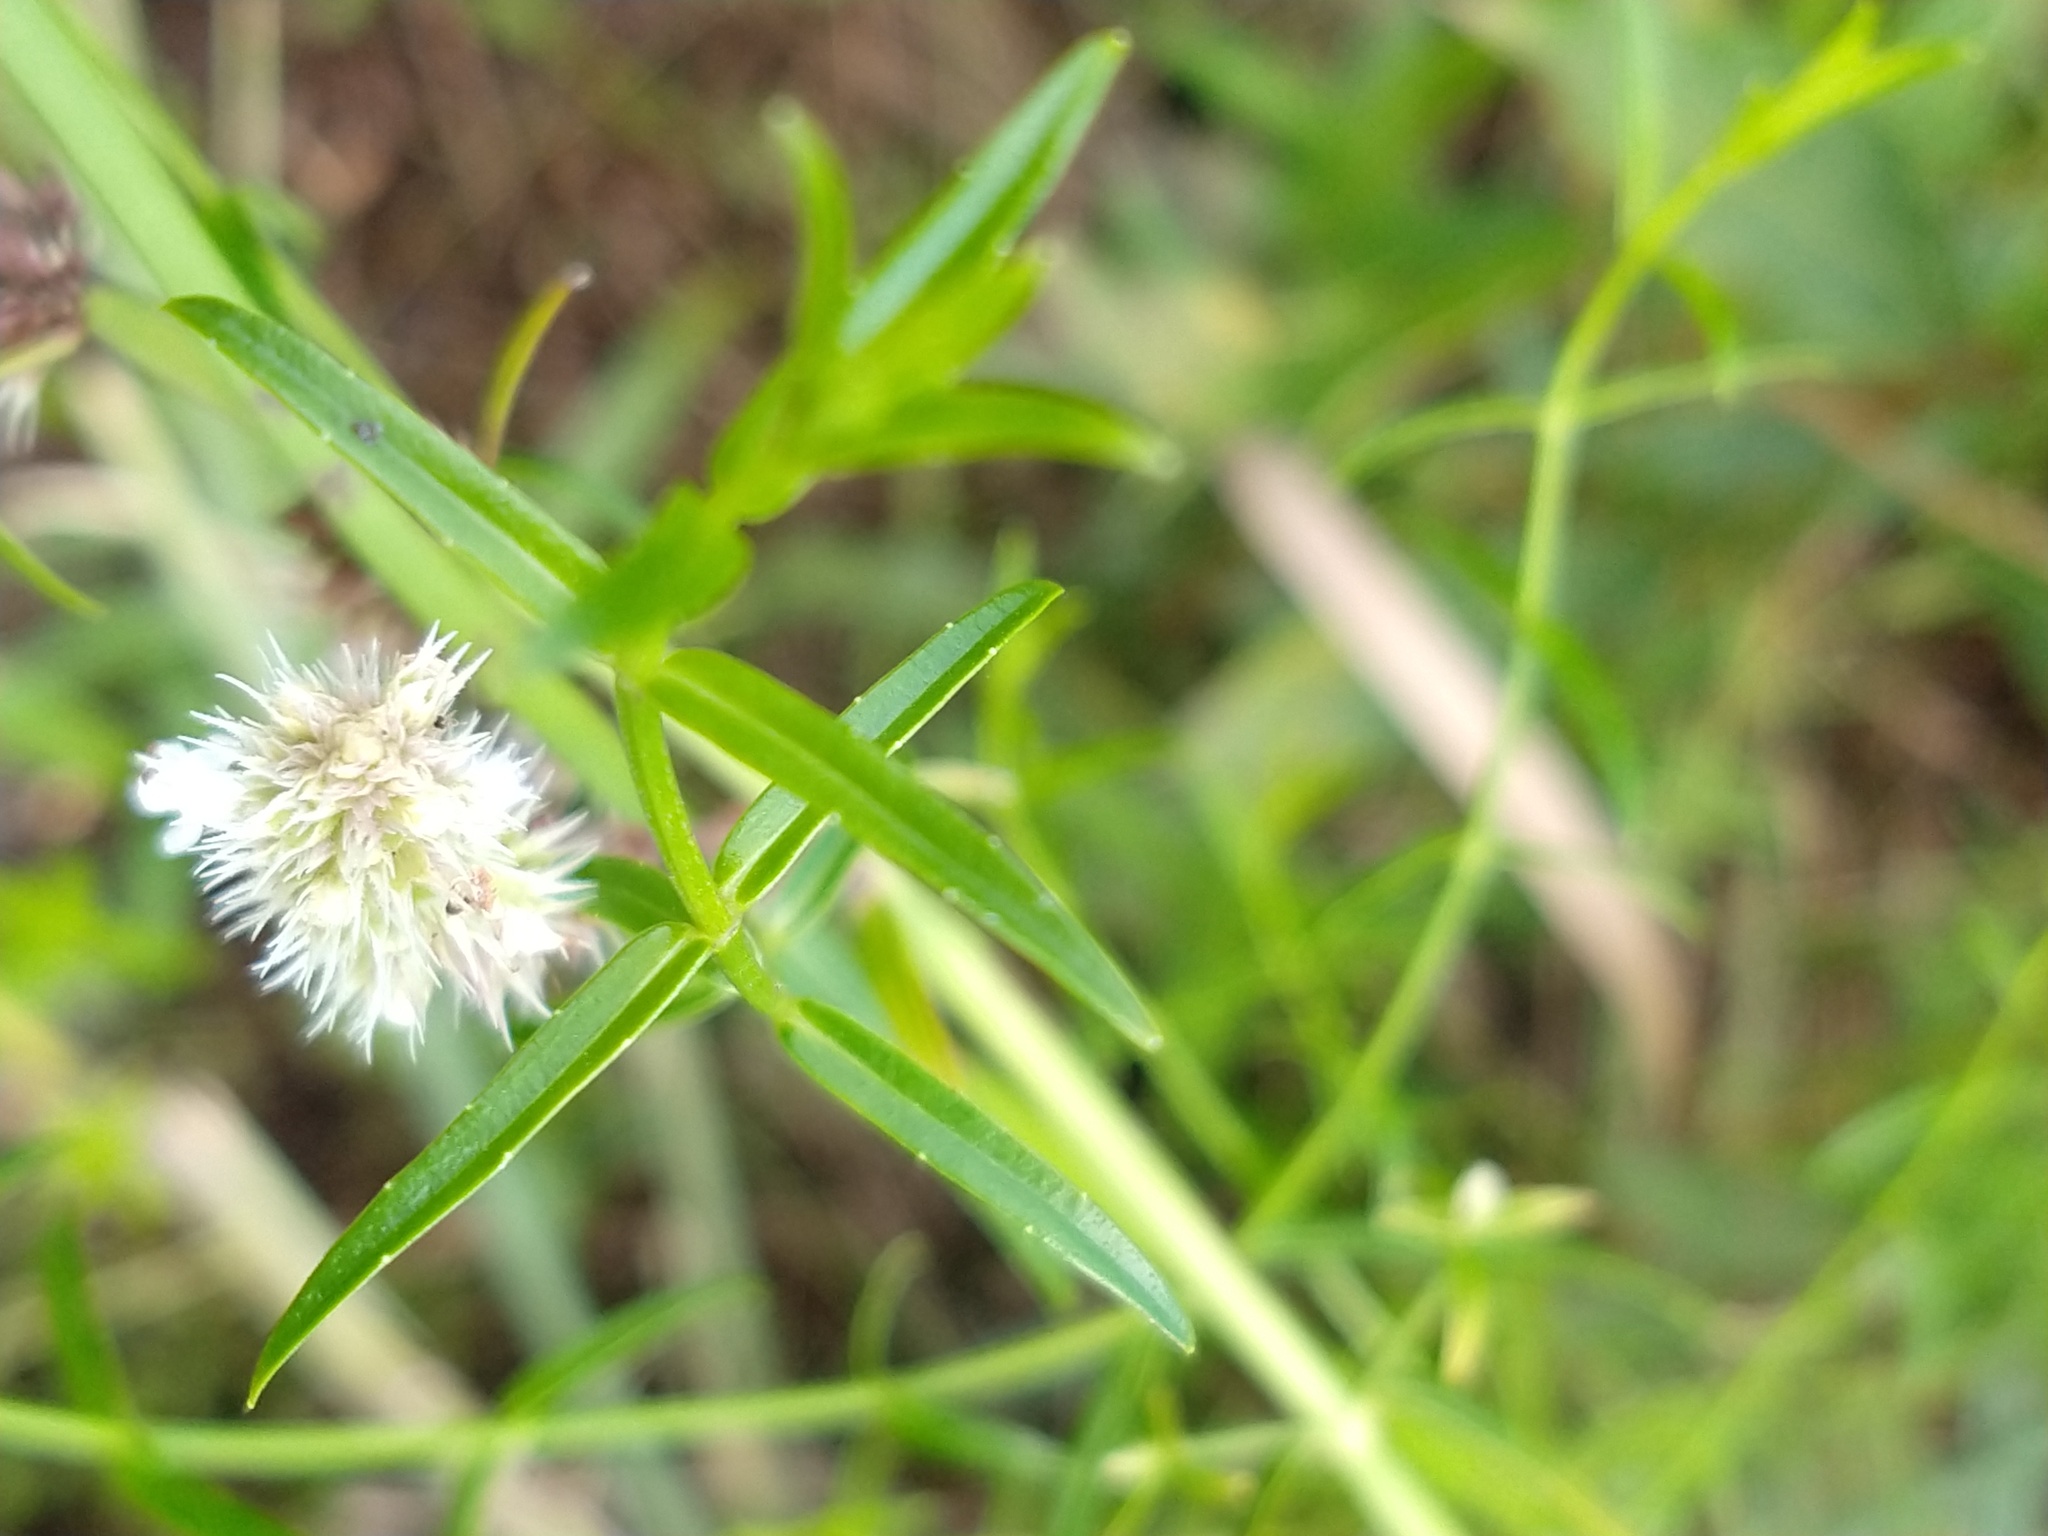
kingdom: Plantae
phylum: Tracheophyta
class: Magnoliopsida
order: Caryophyllales
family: Amaranthaceae
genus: Alternanthera
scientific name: Alternanthera philoxeroides
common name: Alligatorweed
